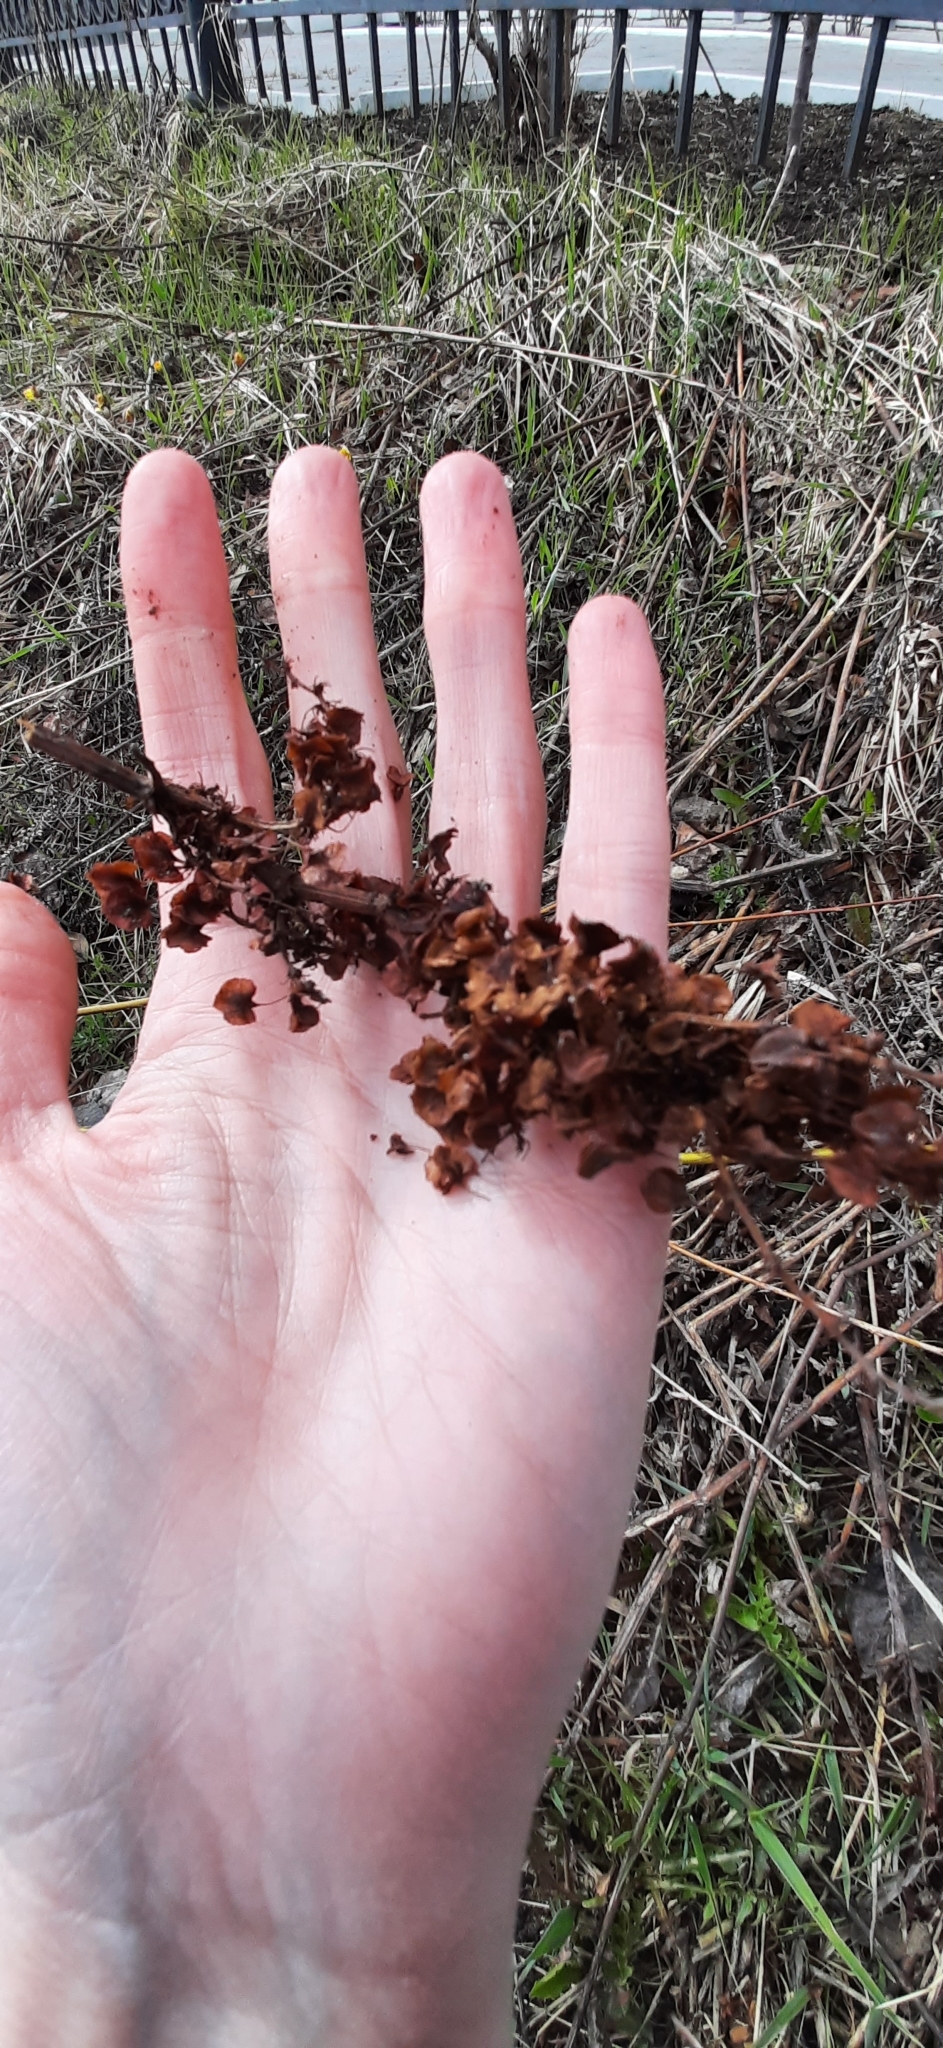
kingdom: Plantae
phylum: Tracheophyta
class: Magnoliopsida
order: Caryophyllales
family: Polygonaceae
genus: Rumex
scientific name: Rumex pseudonatronatus
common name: Field dock
